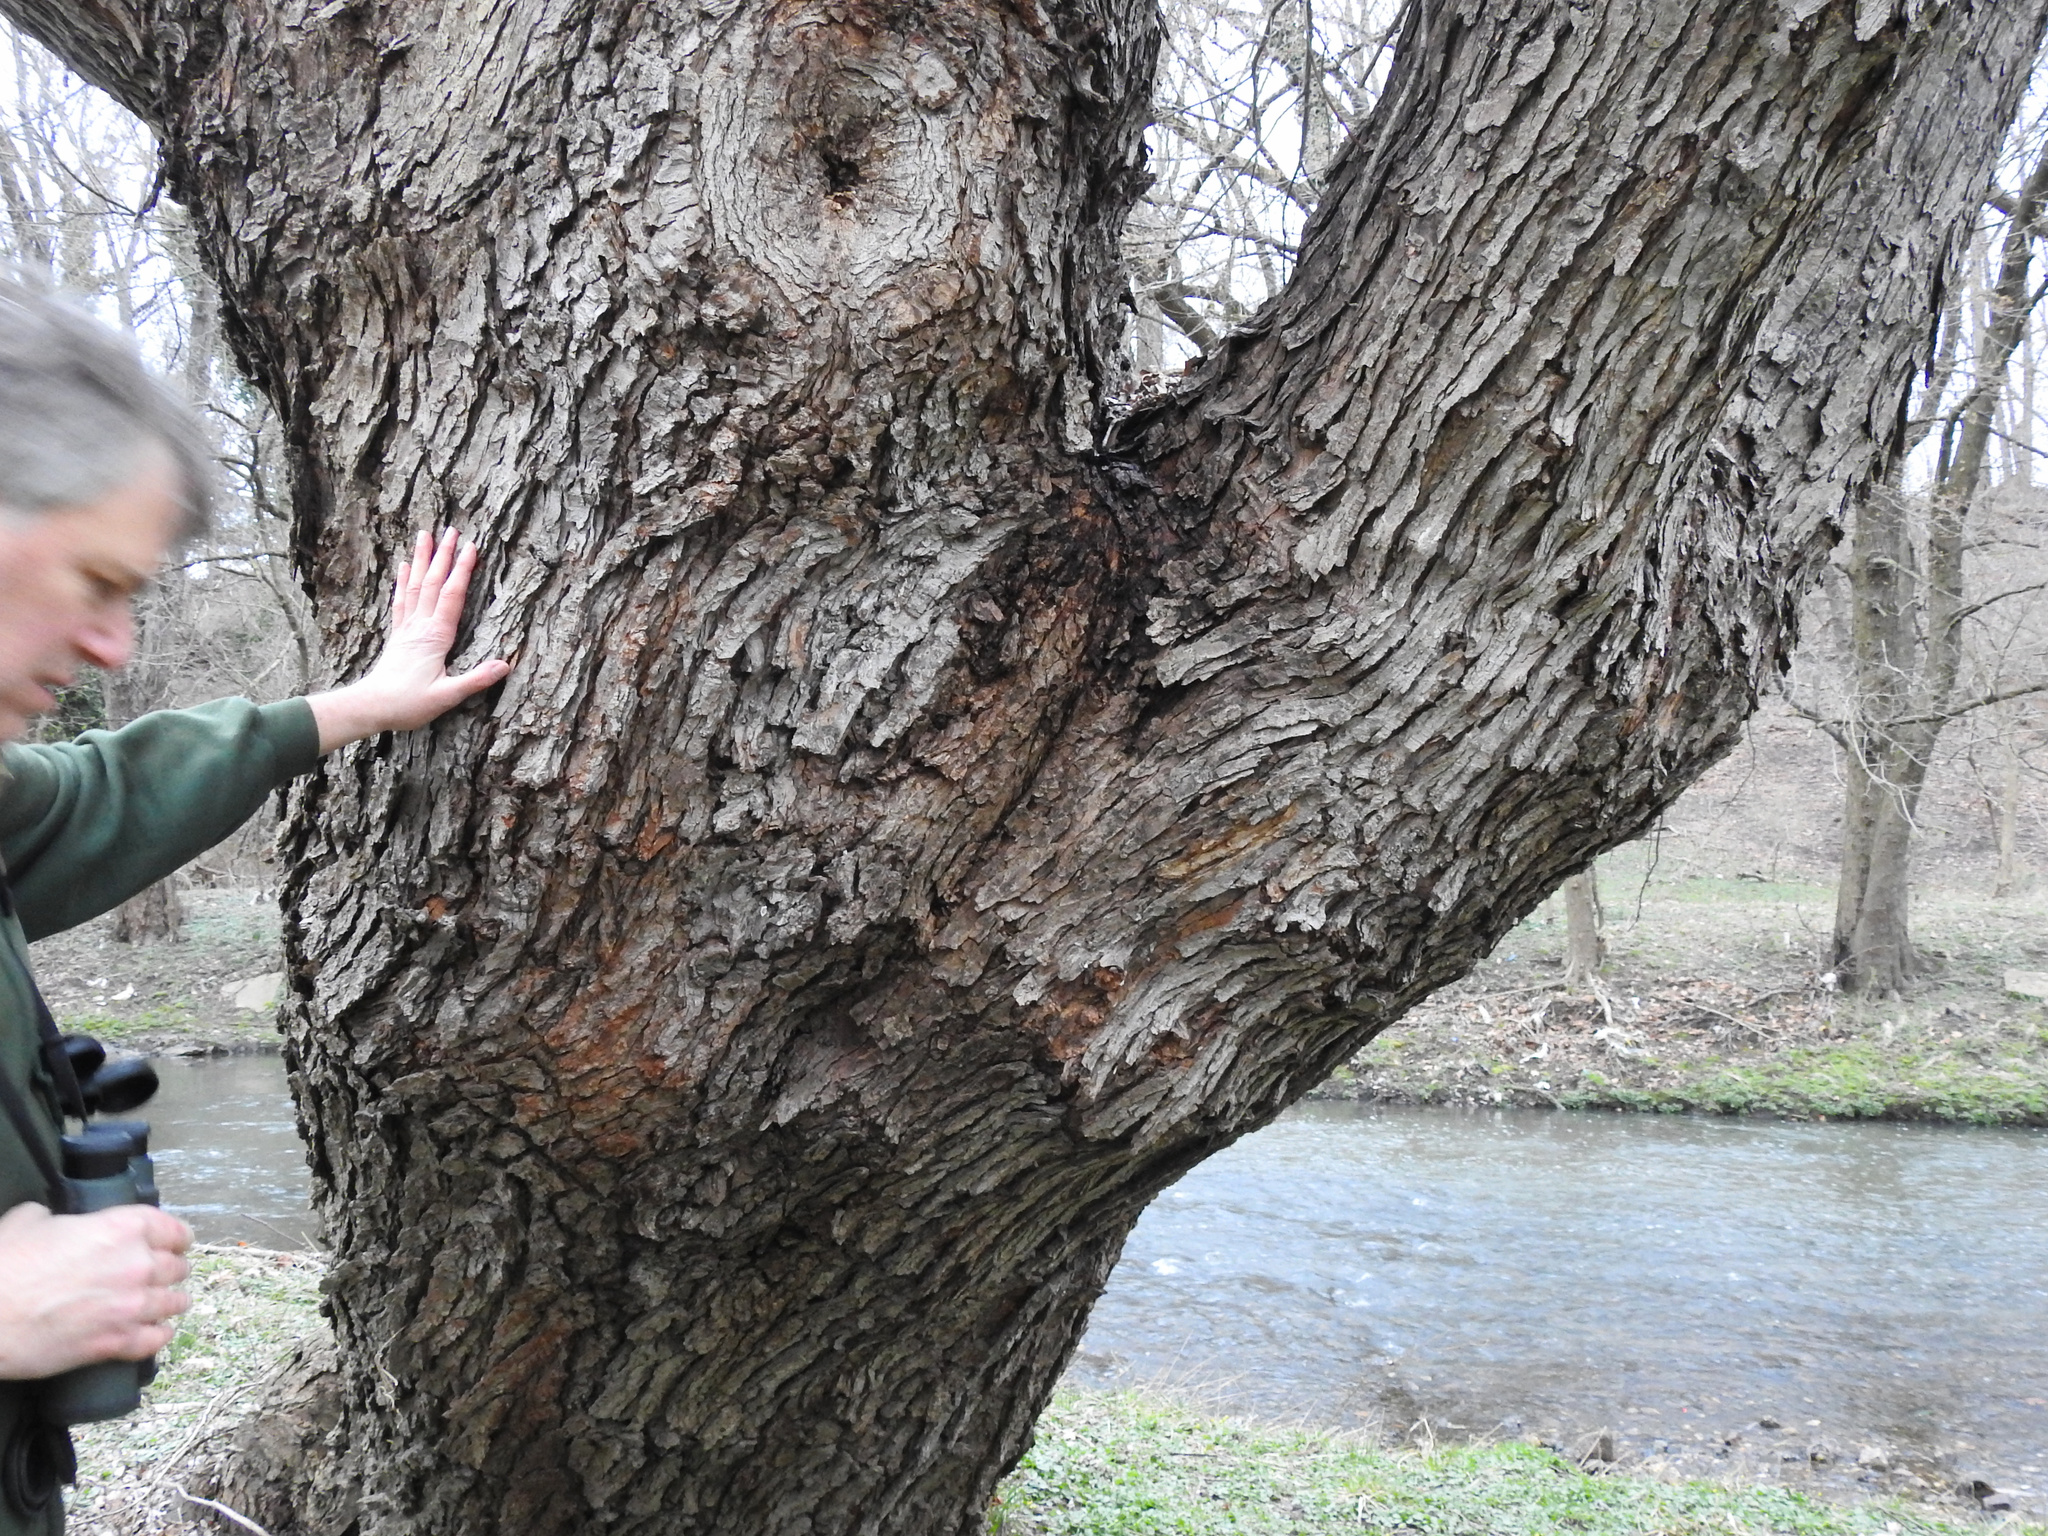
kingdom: Plantae
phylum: Tracheophyta
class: Magnoliopsida
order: Sapindales
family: Sapindaceae
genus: Acer
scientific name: Acer saccharinum
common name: Silver maple
